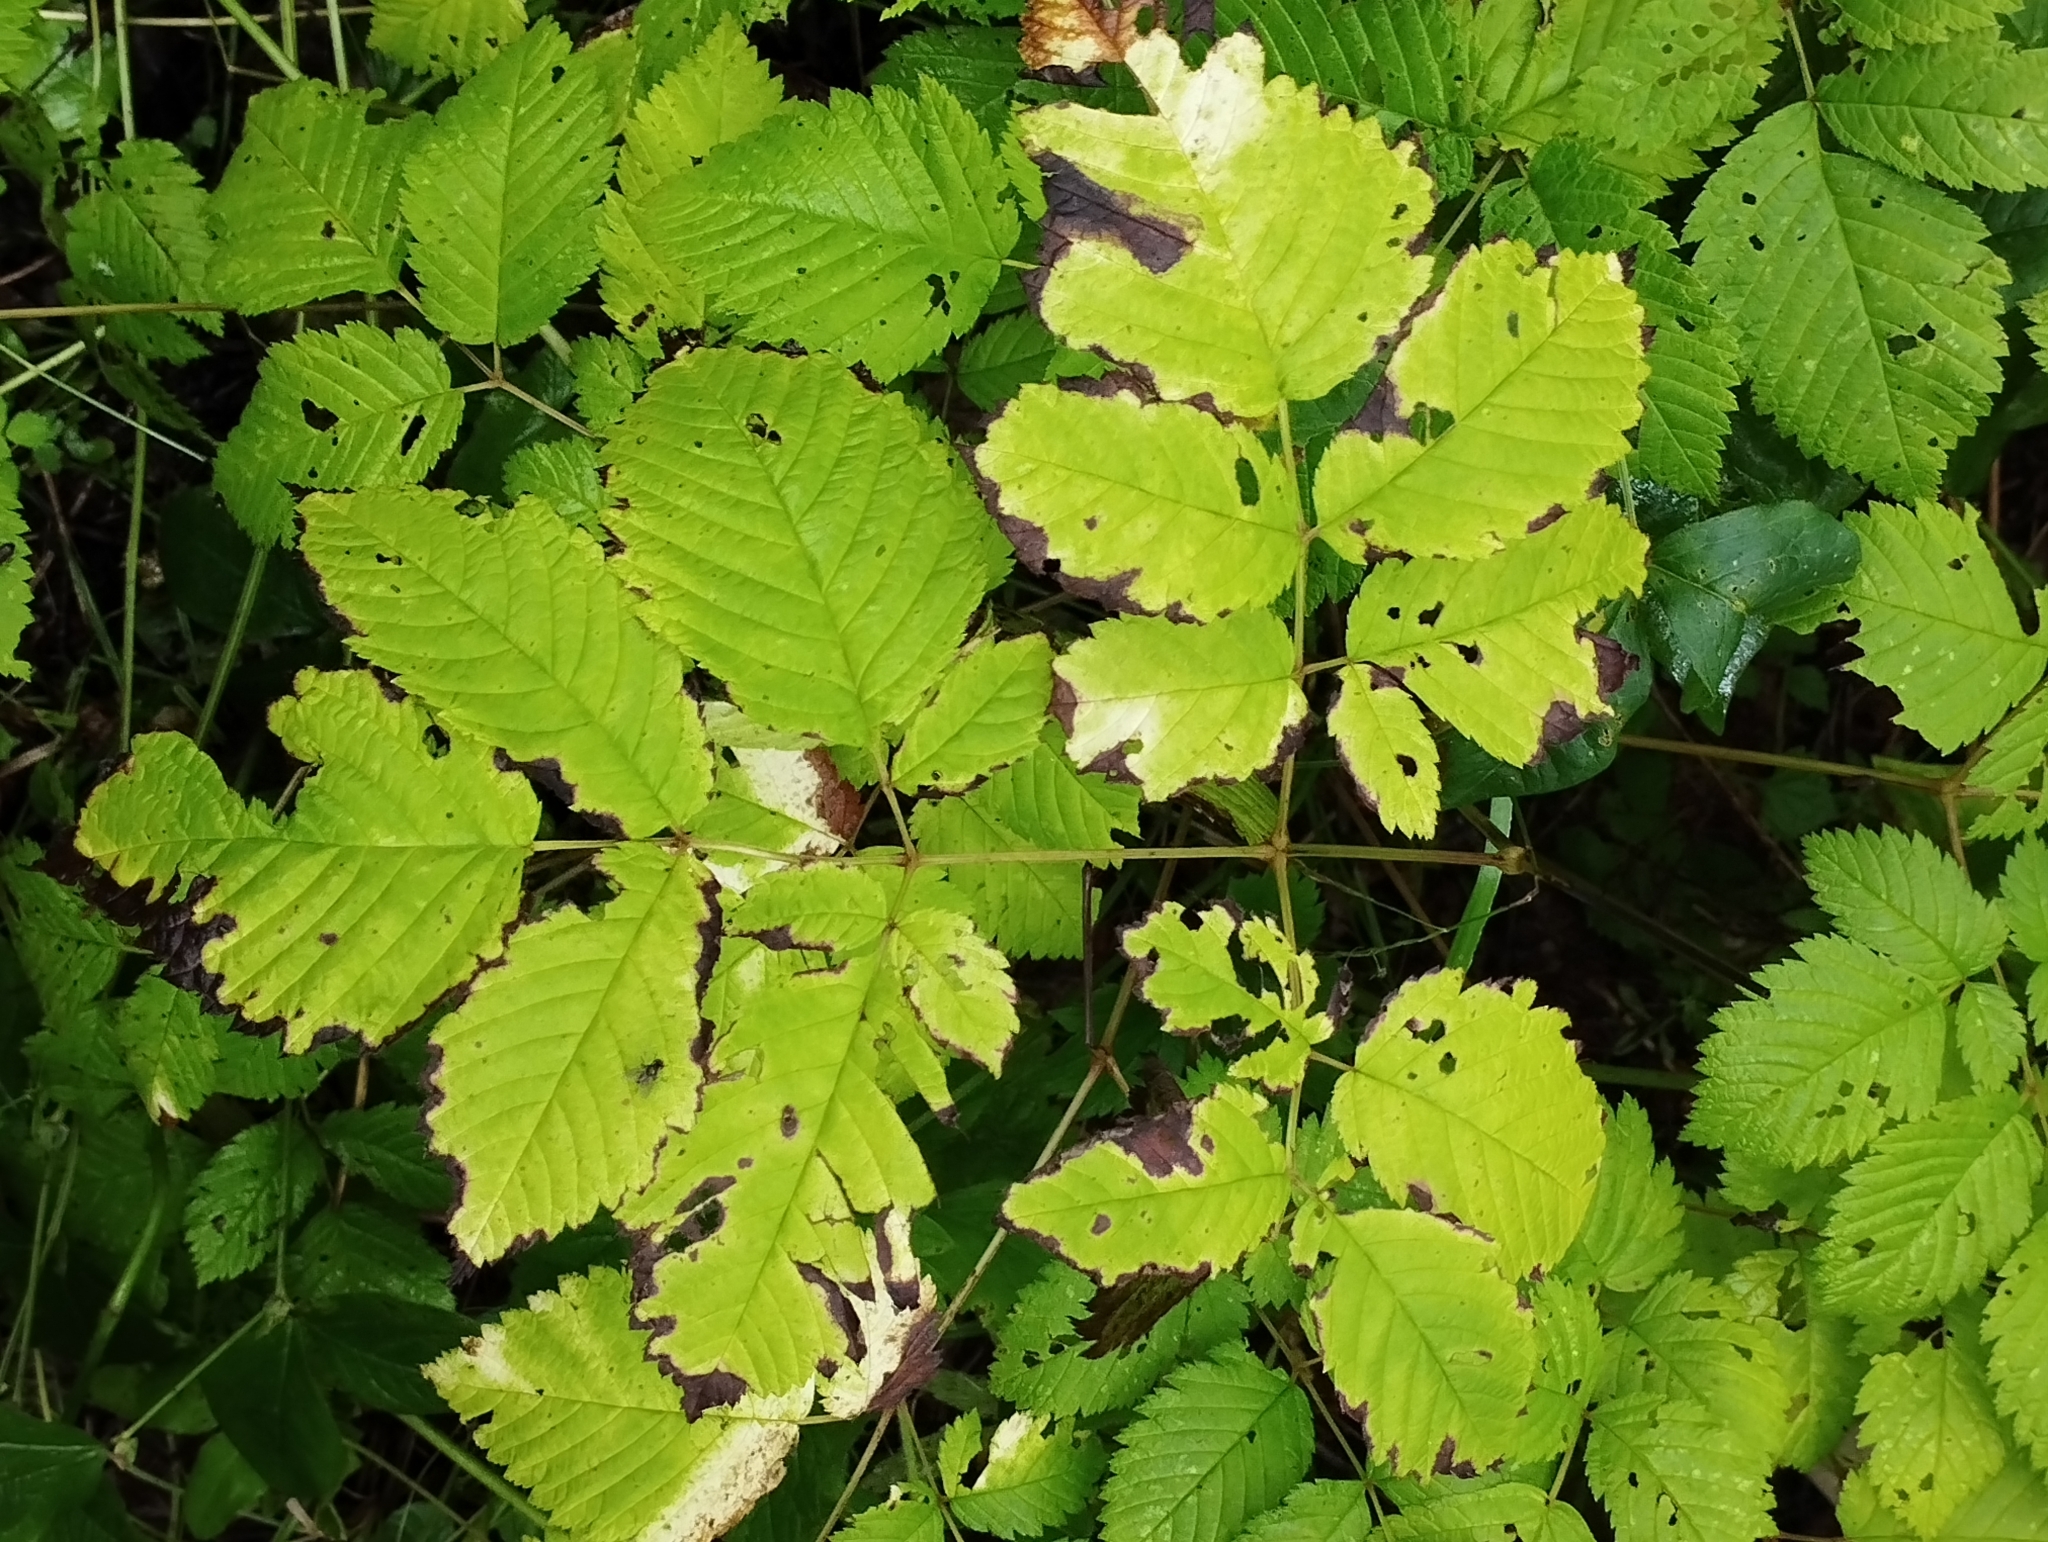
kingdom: Plantae
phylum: Tracheophyta
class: Magnoliopsida
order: Rosales
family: Rosaceae
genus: Aruncus
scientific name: Aruncus dioicus
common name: Buck's-beard
